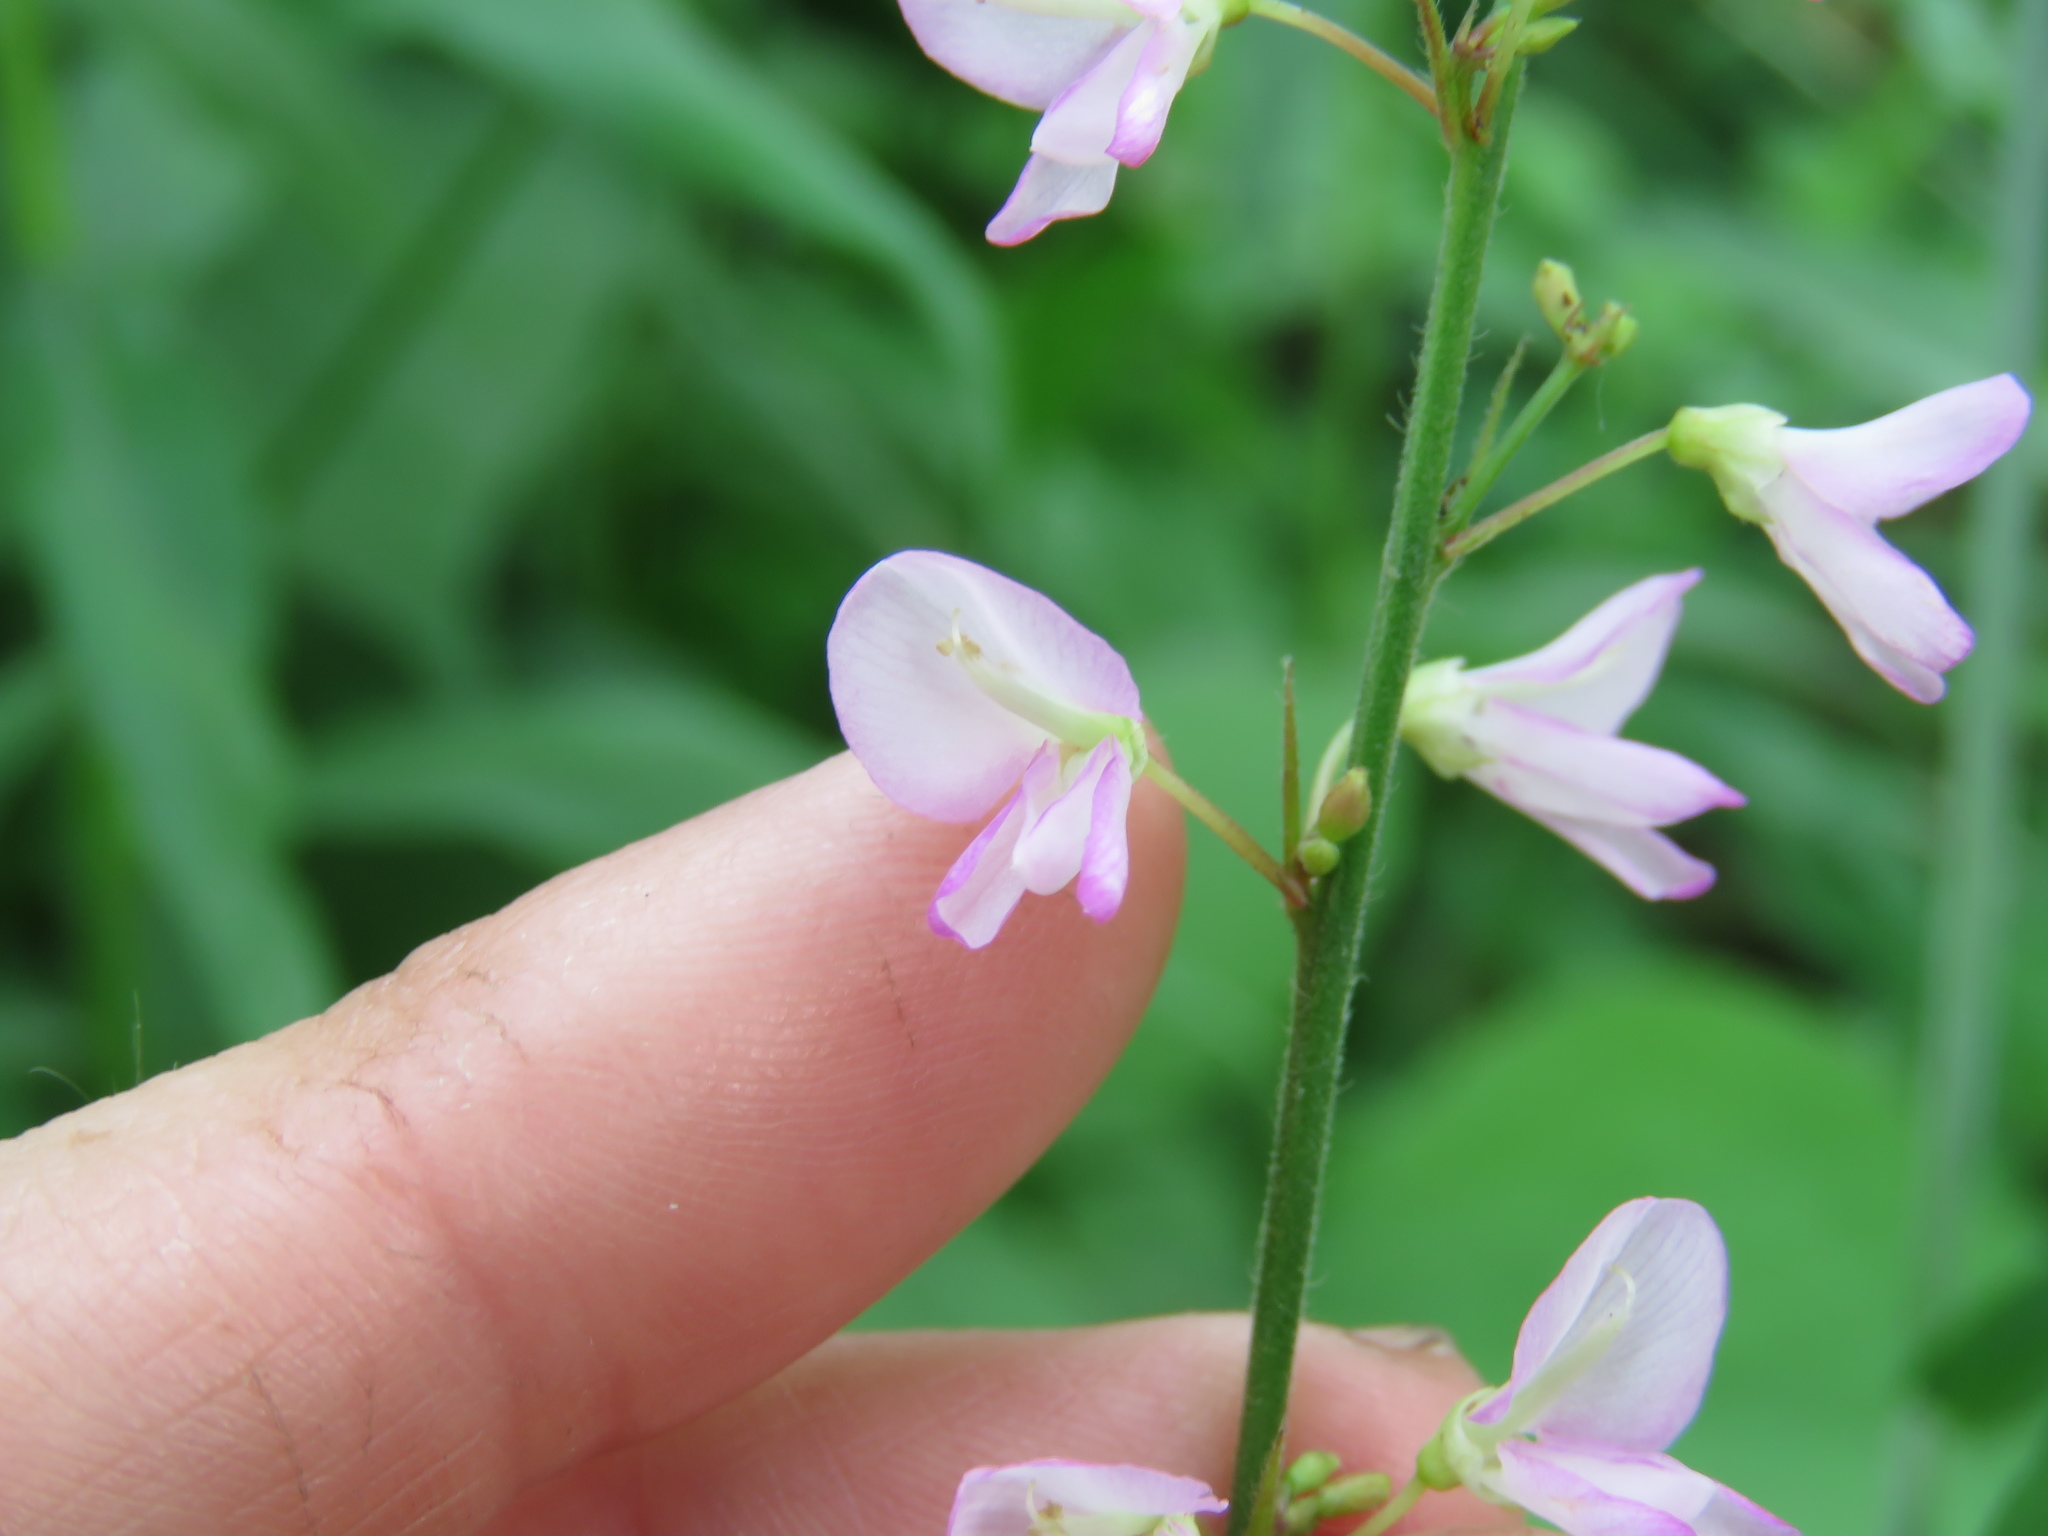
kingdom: Plantae
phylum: Tracheophyta
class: Magnoliopsida
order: Fabales
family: Fabaceae
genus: Hylodesmum
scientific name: Hylodesmum glutinosum
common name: Clustered-leaved tick-trefoil
